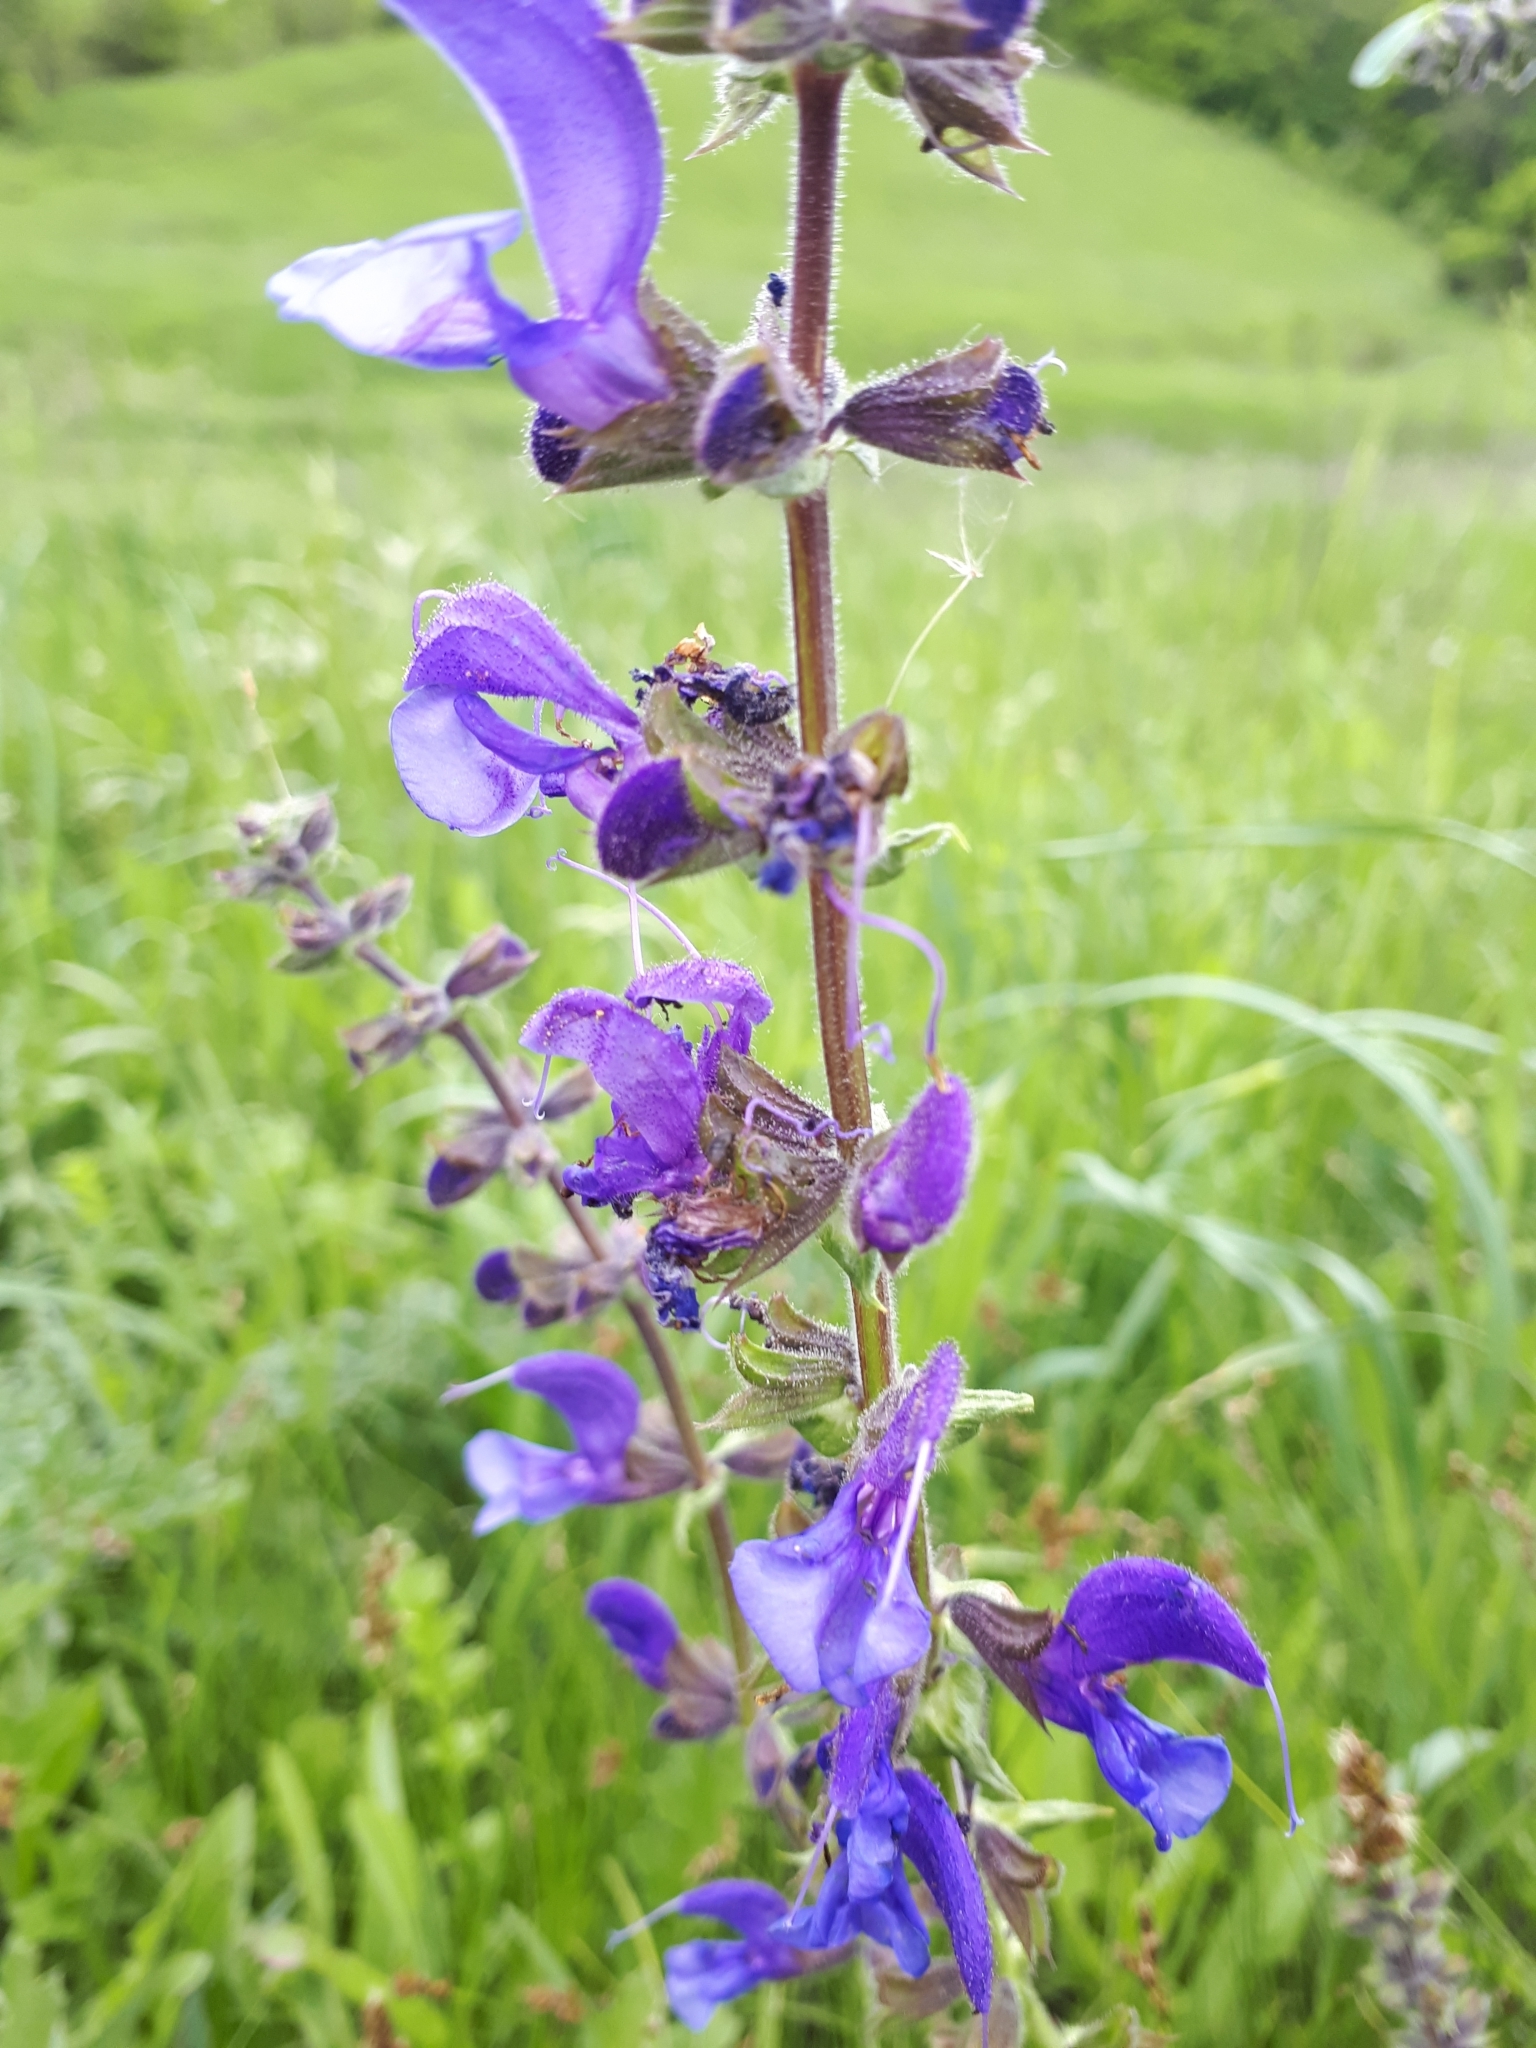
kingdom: Plantae
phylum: Tracheophyta
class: Magnoliopsida
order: Lamiales
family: Lamiaceae
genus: Salvia
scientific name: Salvia pratensis
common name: Meadow sage
